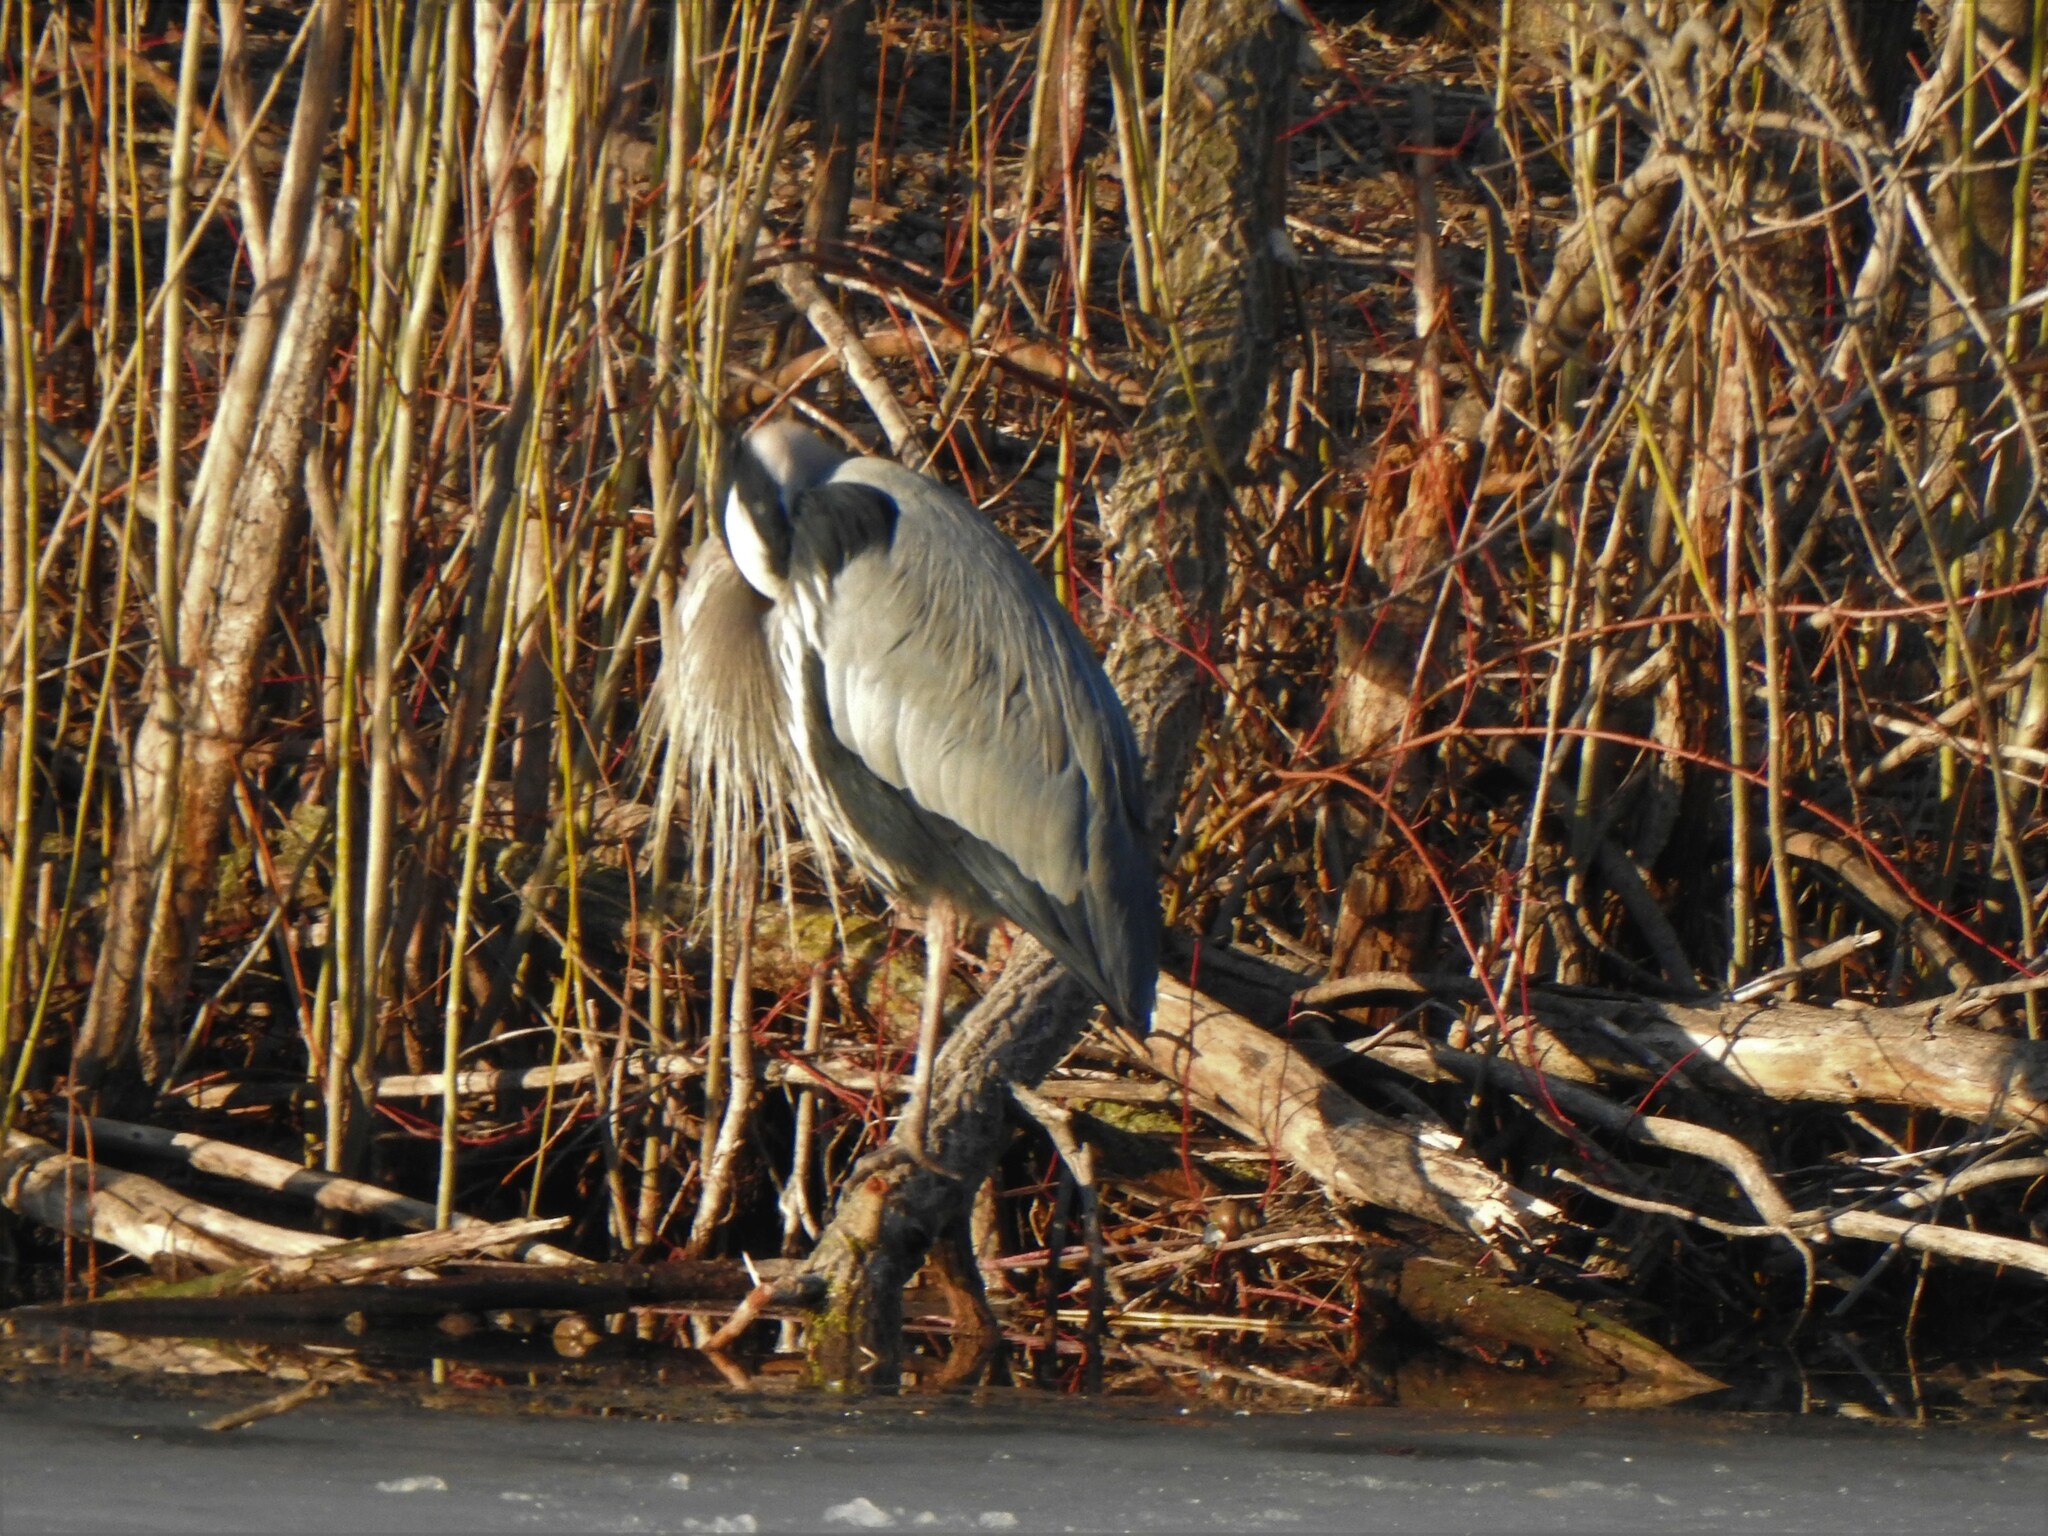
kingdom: Animalia
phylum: Chordata
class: Aves
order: Pelecaniformes
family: Ardeidae
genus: Ardea
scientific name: Ardea herodias
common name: Great blue heron
